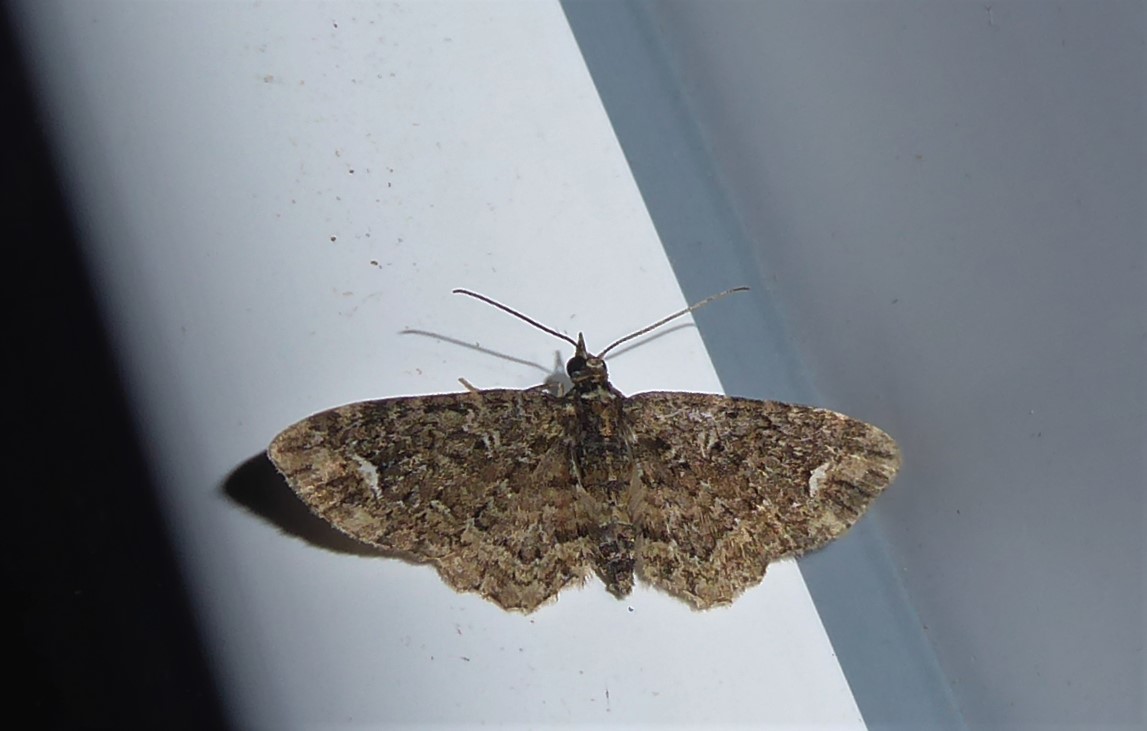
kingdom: Animalia
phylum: Arthropoda
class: Insecta
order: Lepidoptera
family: Geometridae
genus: Pasiphilodes
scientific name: Pasiphilodes testulata
